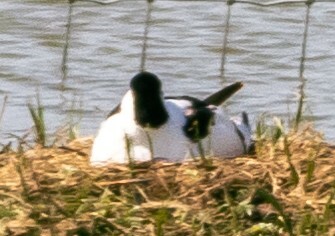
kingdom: Animalia
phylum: Chordata
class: Aves
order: Charadriiformes
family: Recurvirostridae
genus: Recurvirostra
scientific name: Recurvirostra avosetta
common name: Pied avocet
